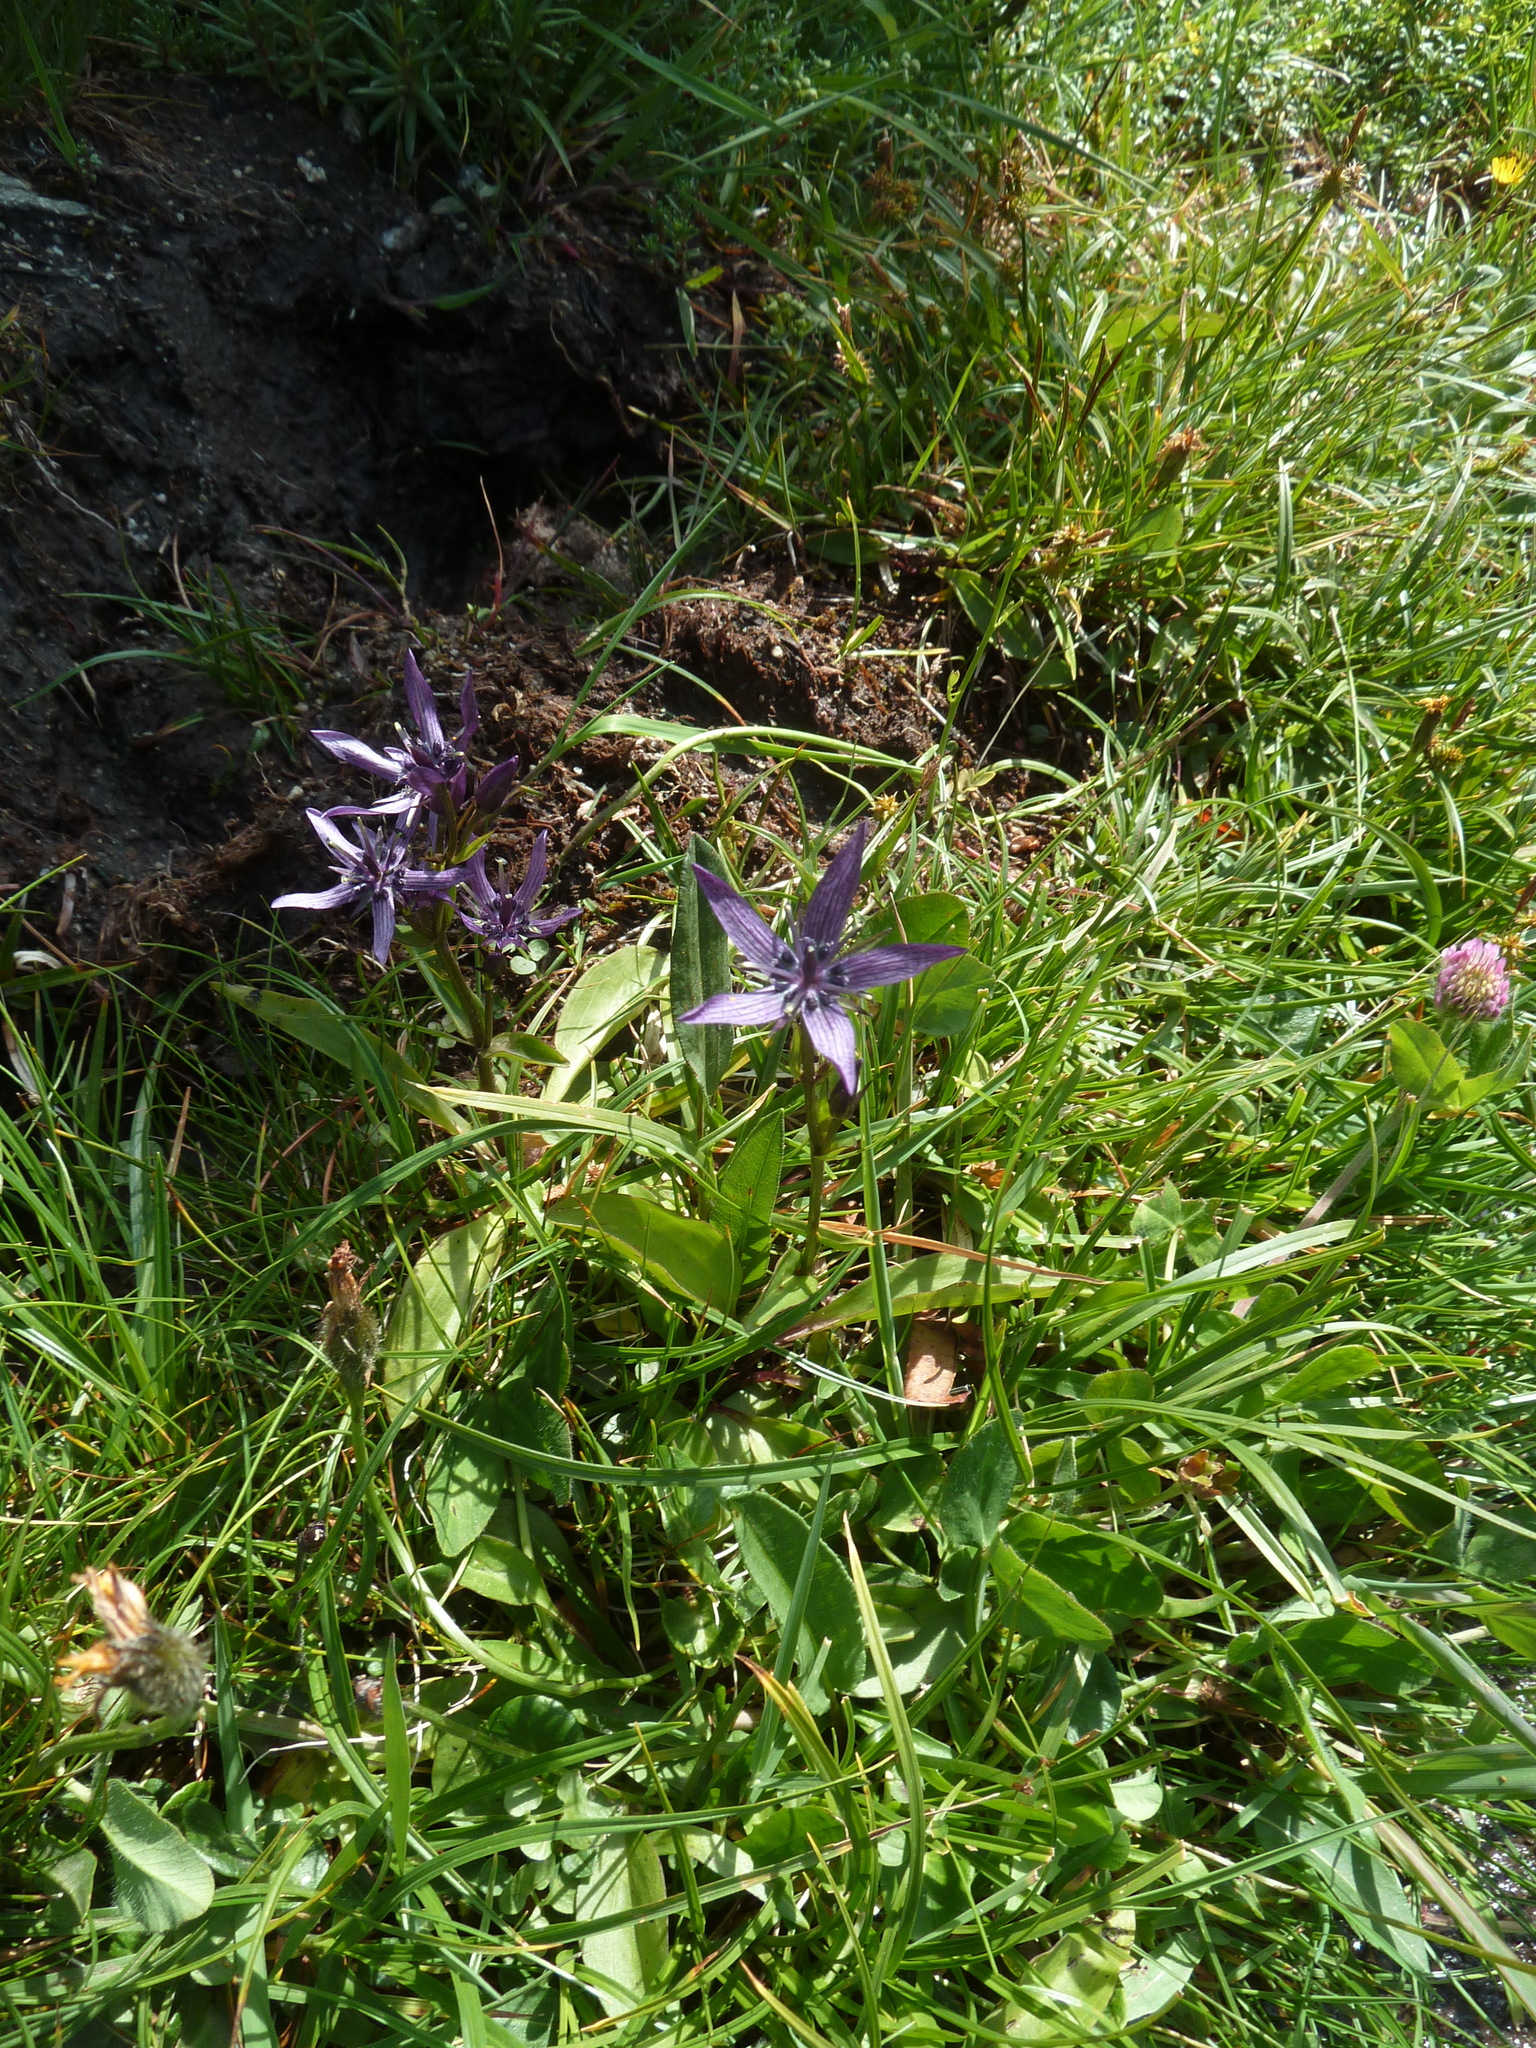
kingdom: Plantae
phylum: Tracheophyta
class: Magnoliopsida
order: Gentianales
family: Gentianaceae
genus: Swertia
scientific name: Swertia perennis
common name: Alpine bog swertia
